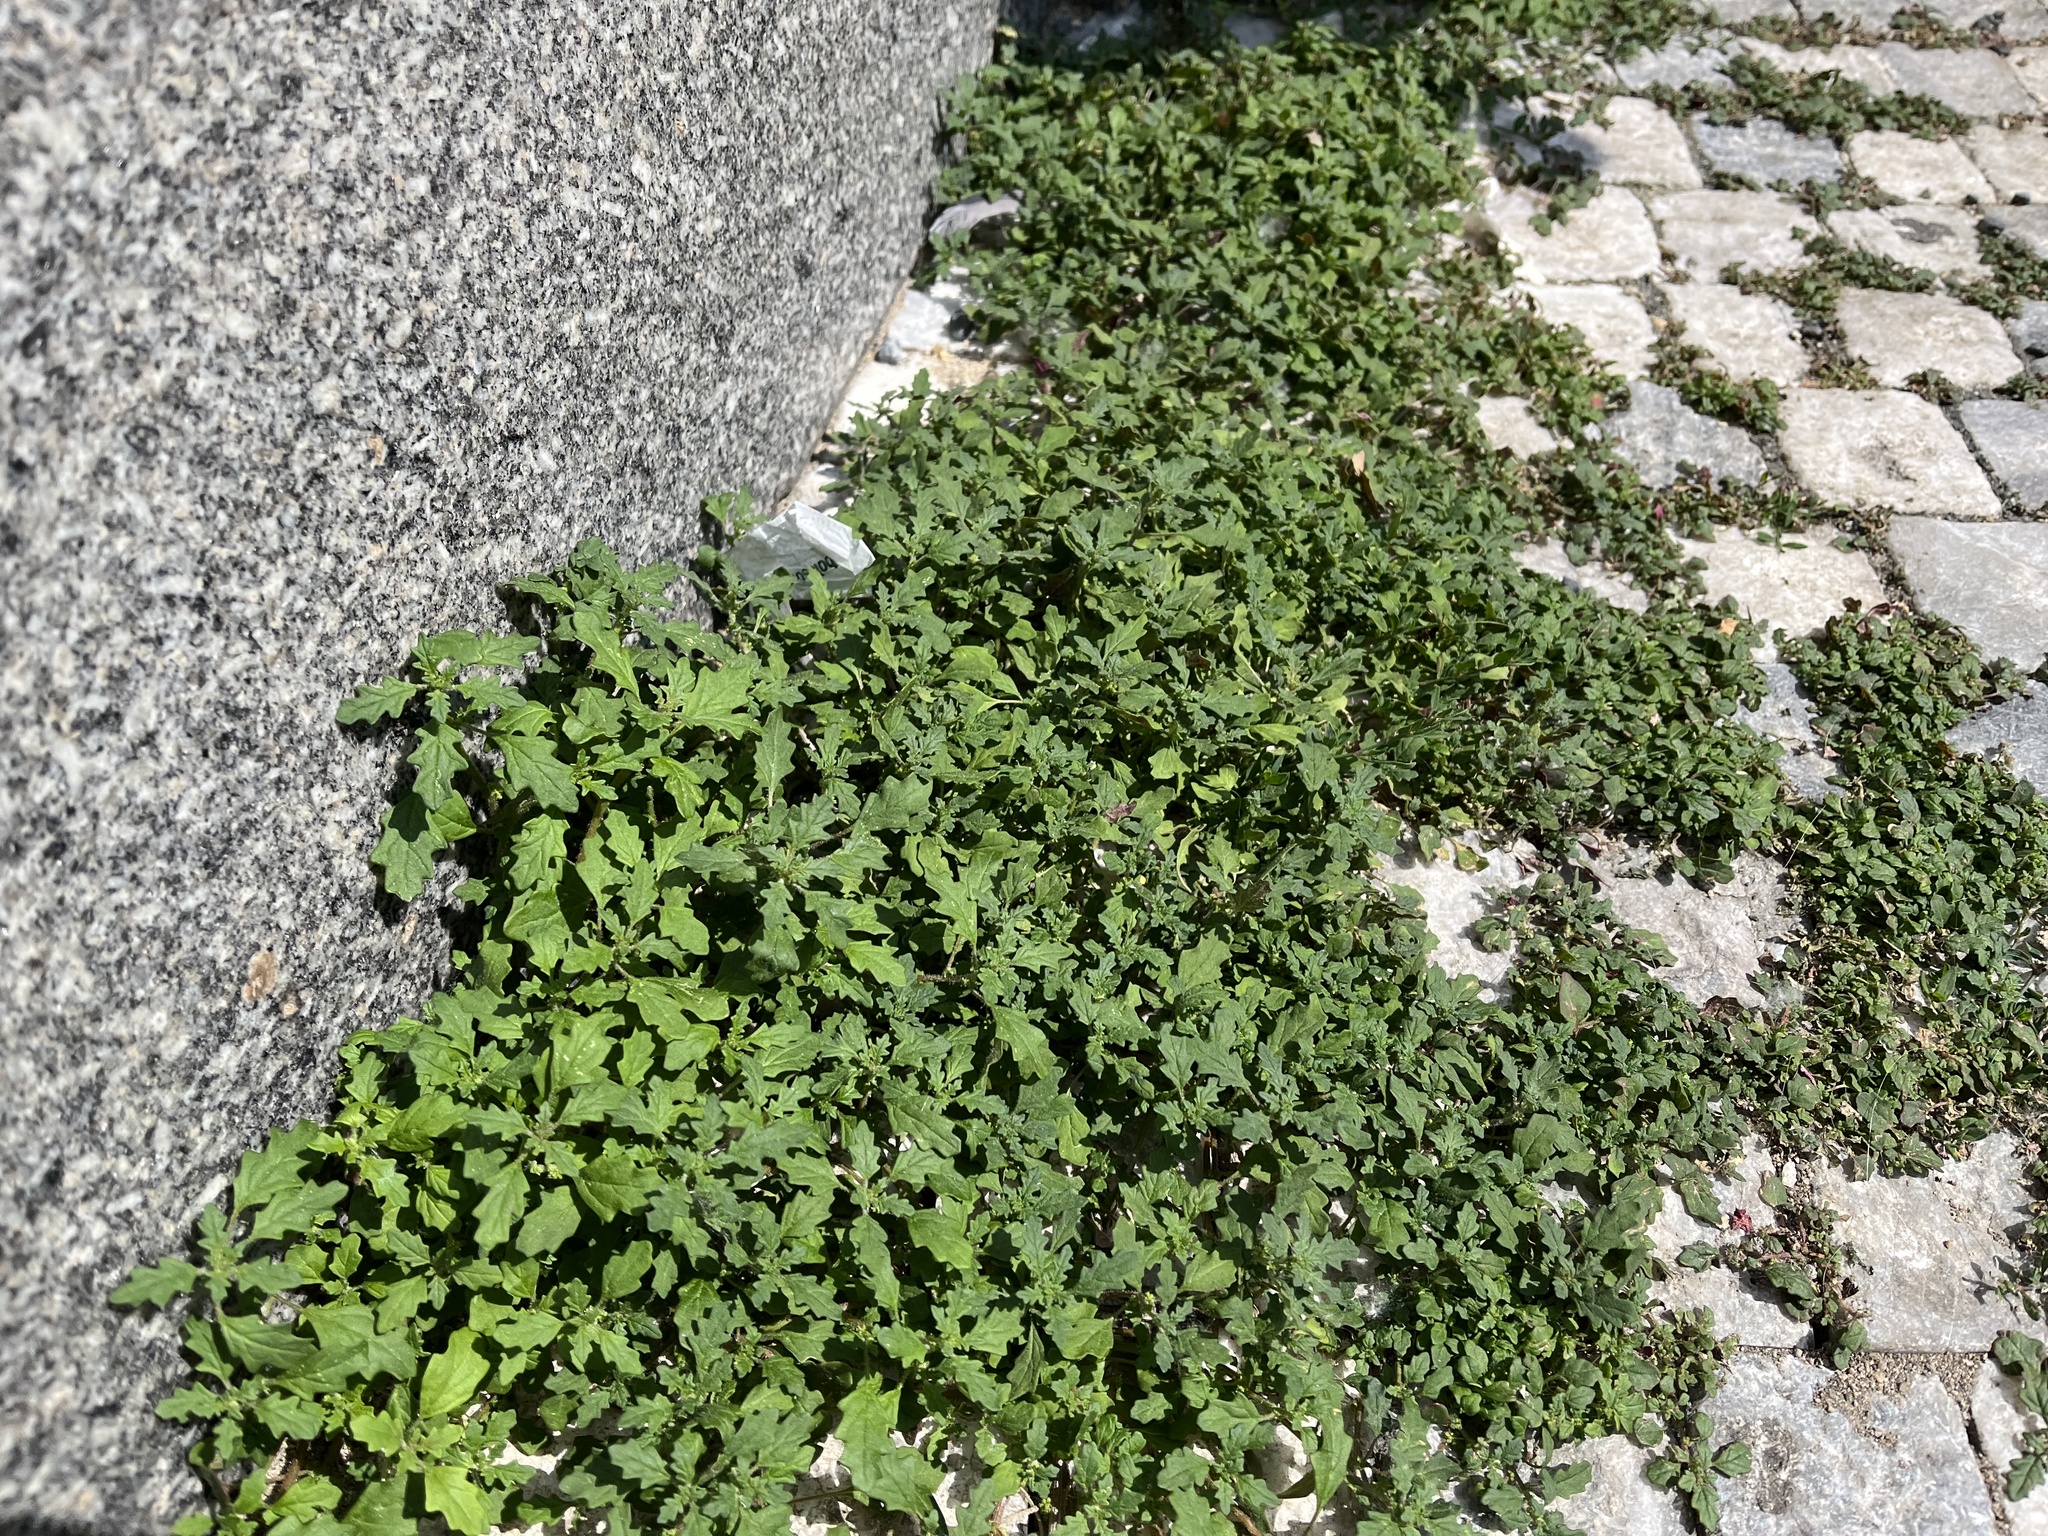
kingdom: Plantae
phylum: Tracheophyta
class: Magnoliopsida
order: Caryophyllales
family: Amaranthaceae
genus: Dysphania
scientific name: Dysphania pumilio
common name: Clammy goosefoot
